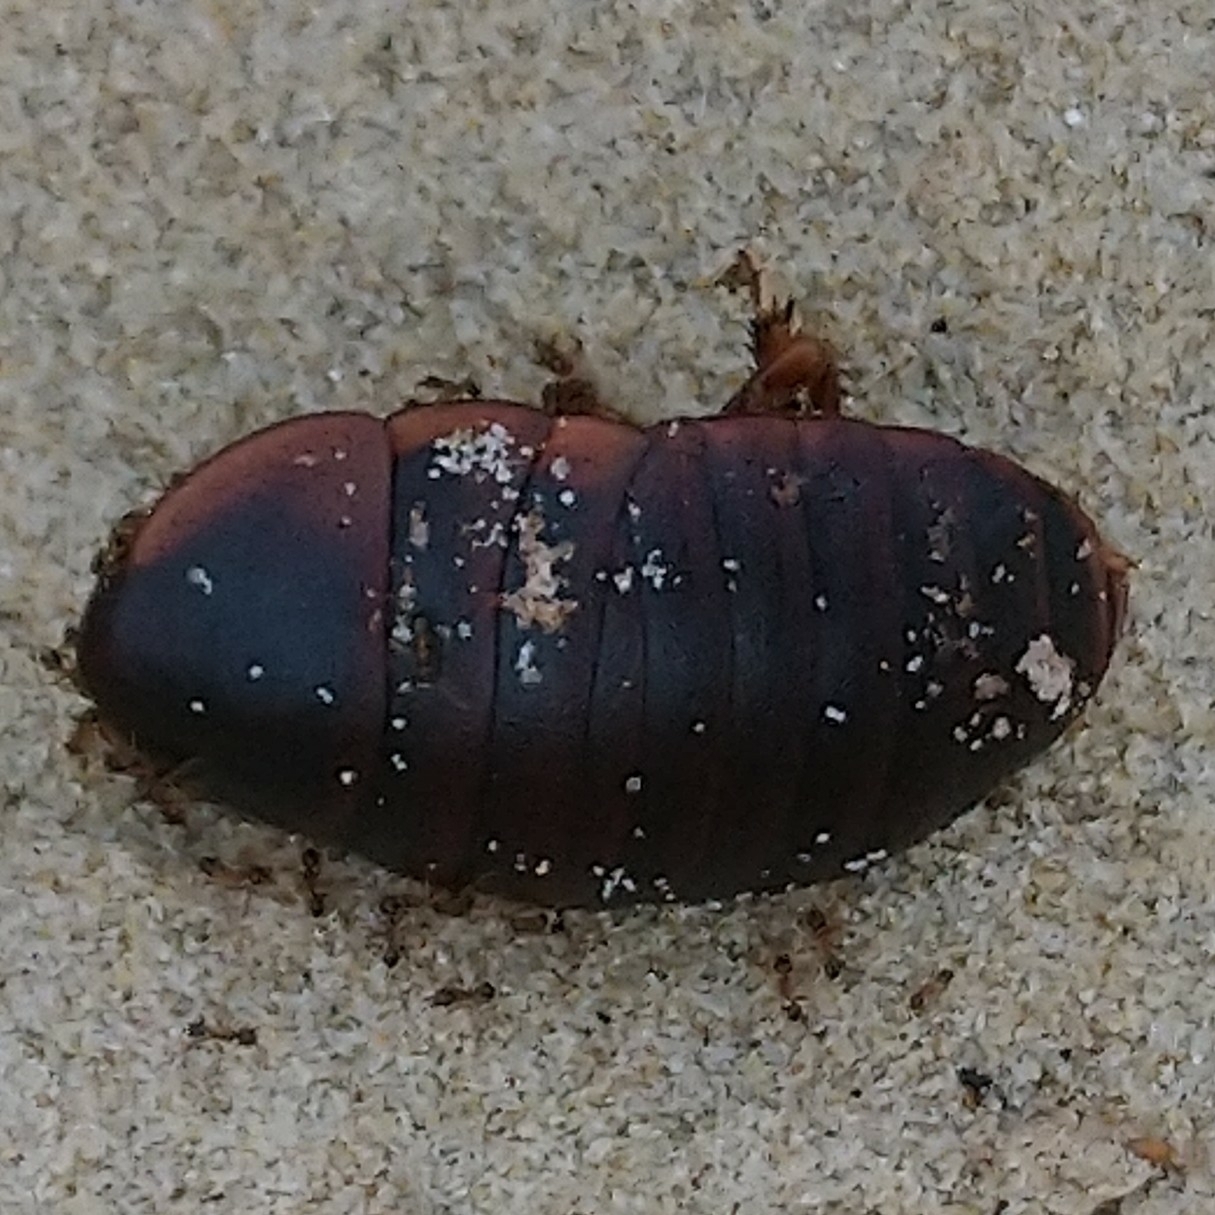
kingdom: Animalia
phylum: Arthropoda
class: Insecta
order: Blattodea
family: Blaberidae
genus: Aptera
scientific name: Aptera fusca
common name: Cape mountain cockroach
